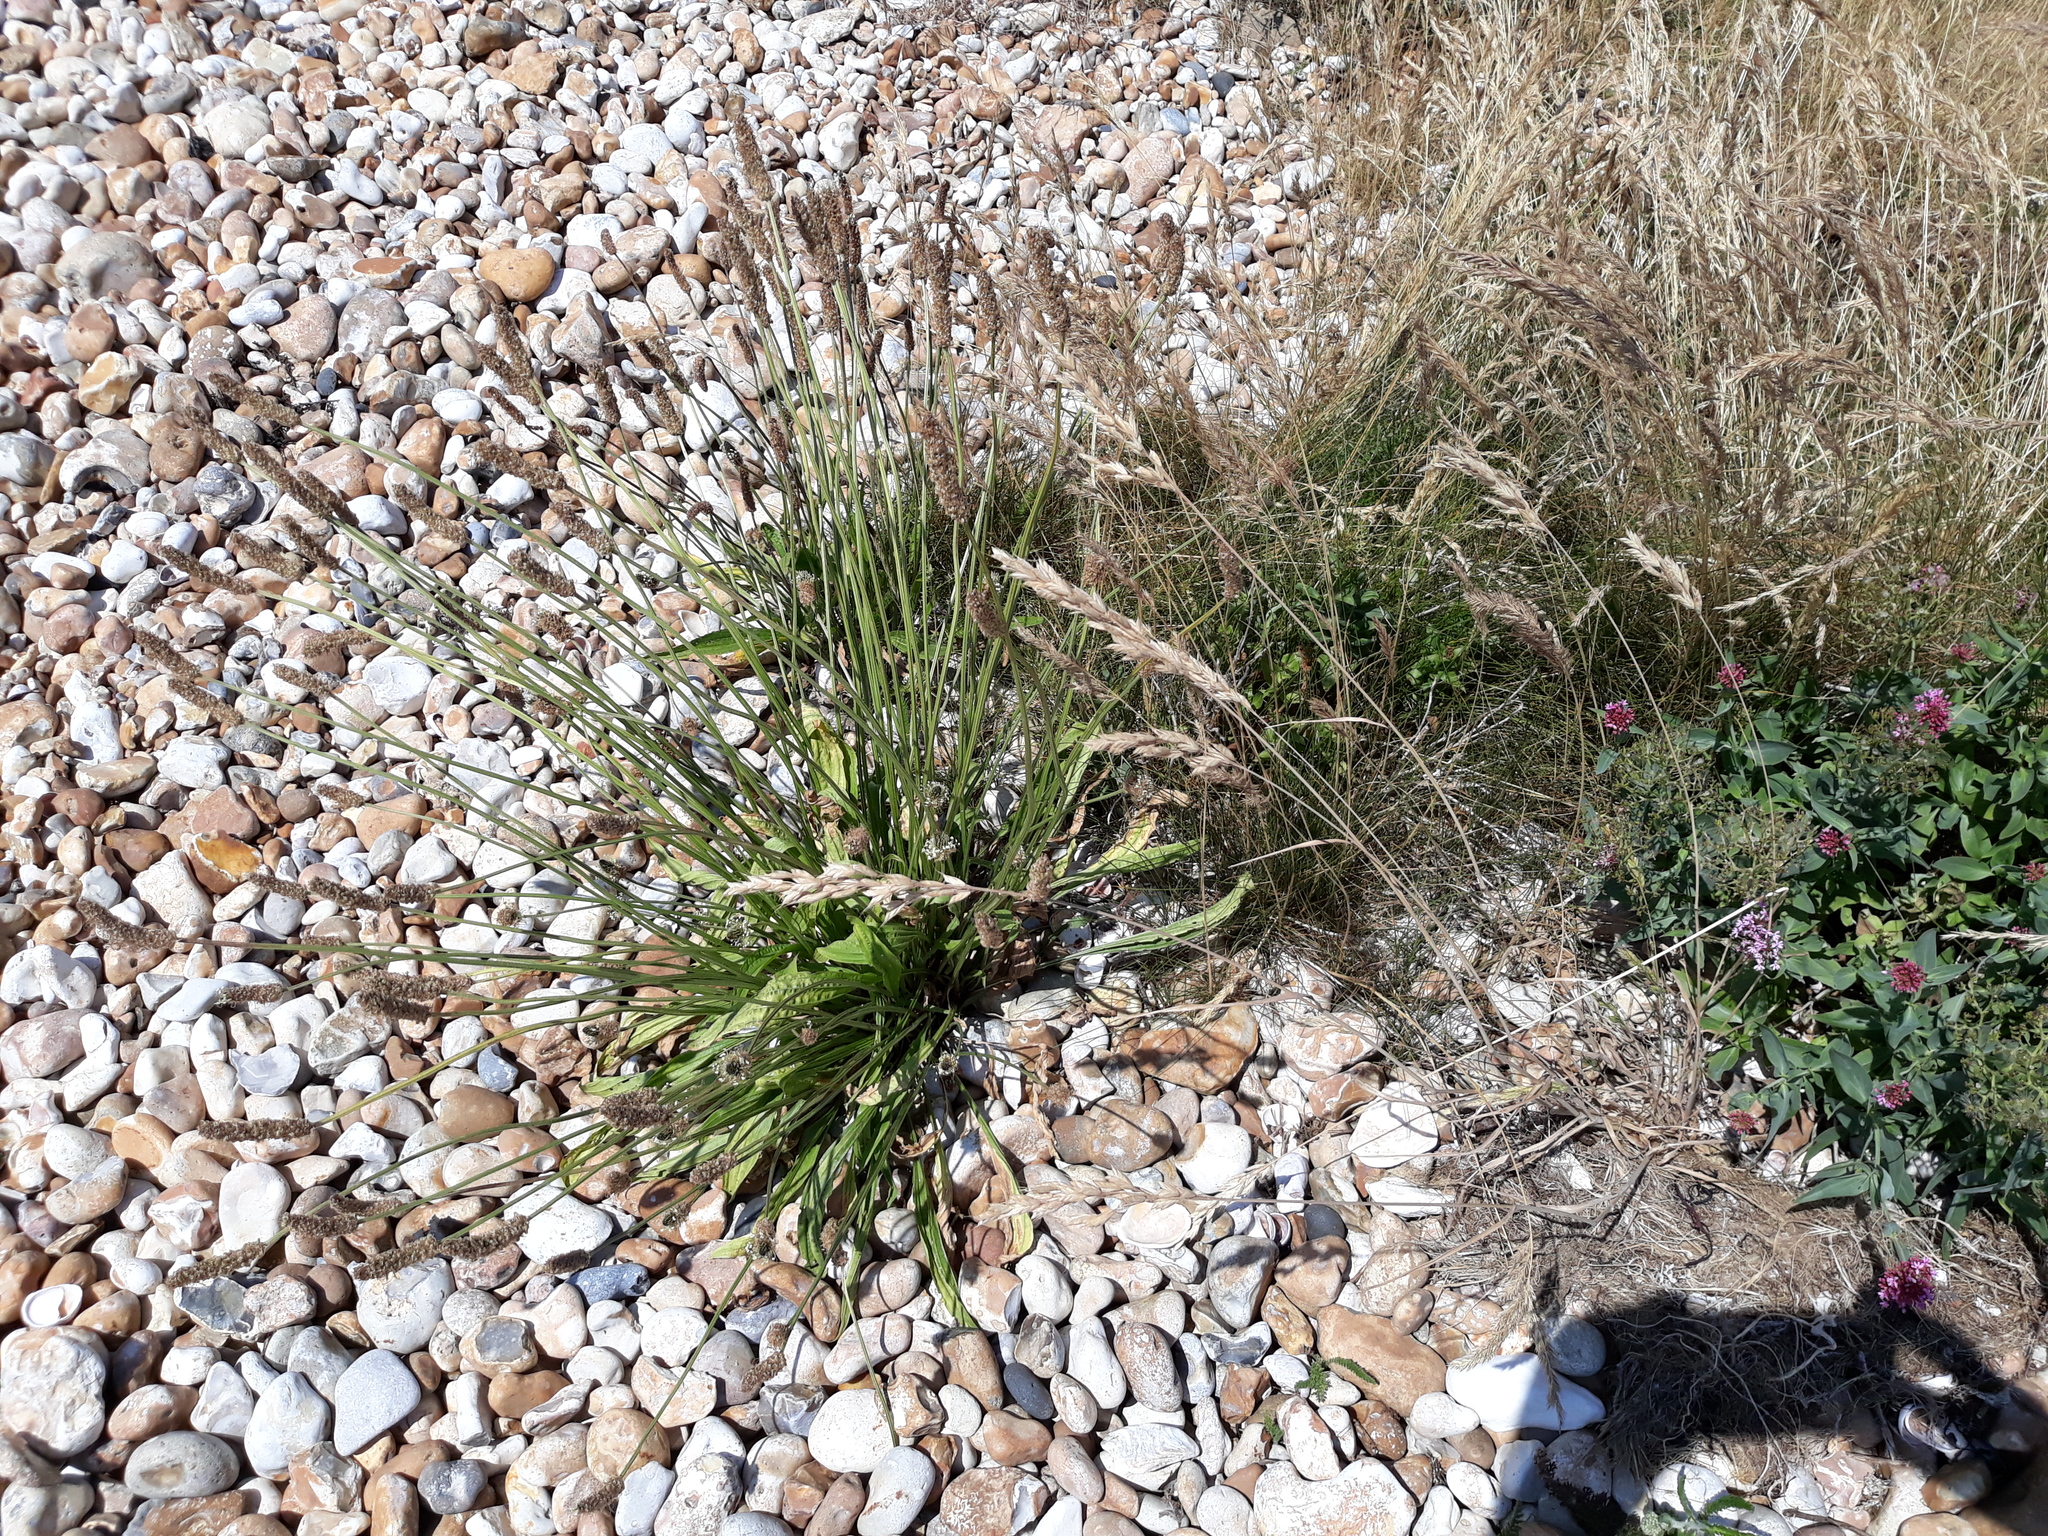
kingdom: Plantae
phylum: Tracheophyta
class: Magnoliopsida
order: Lamiales
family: Plantaginaceae
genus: Plantago
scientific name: Plantago lanceolata
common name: Ribwort plantain
